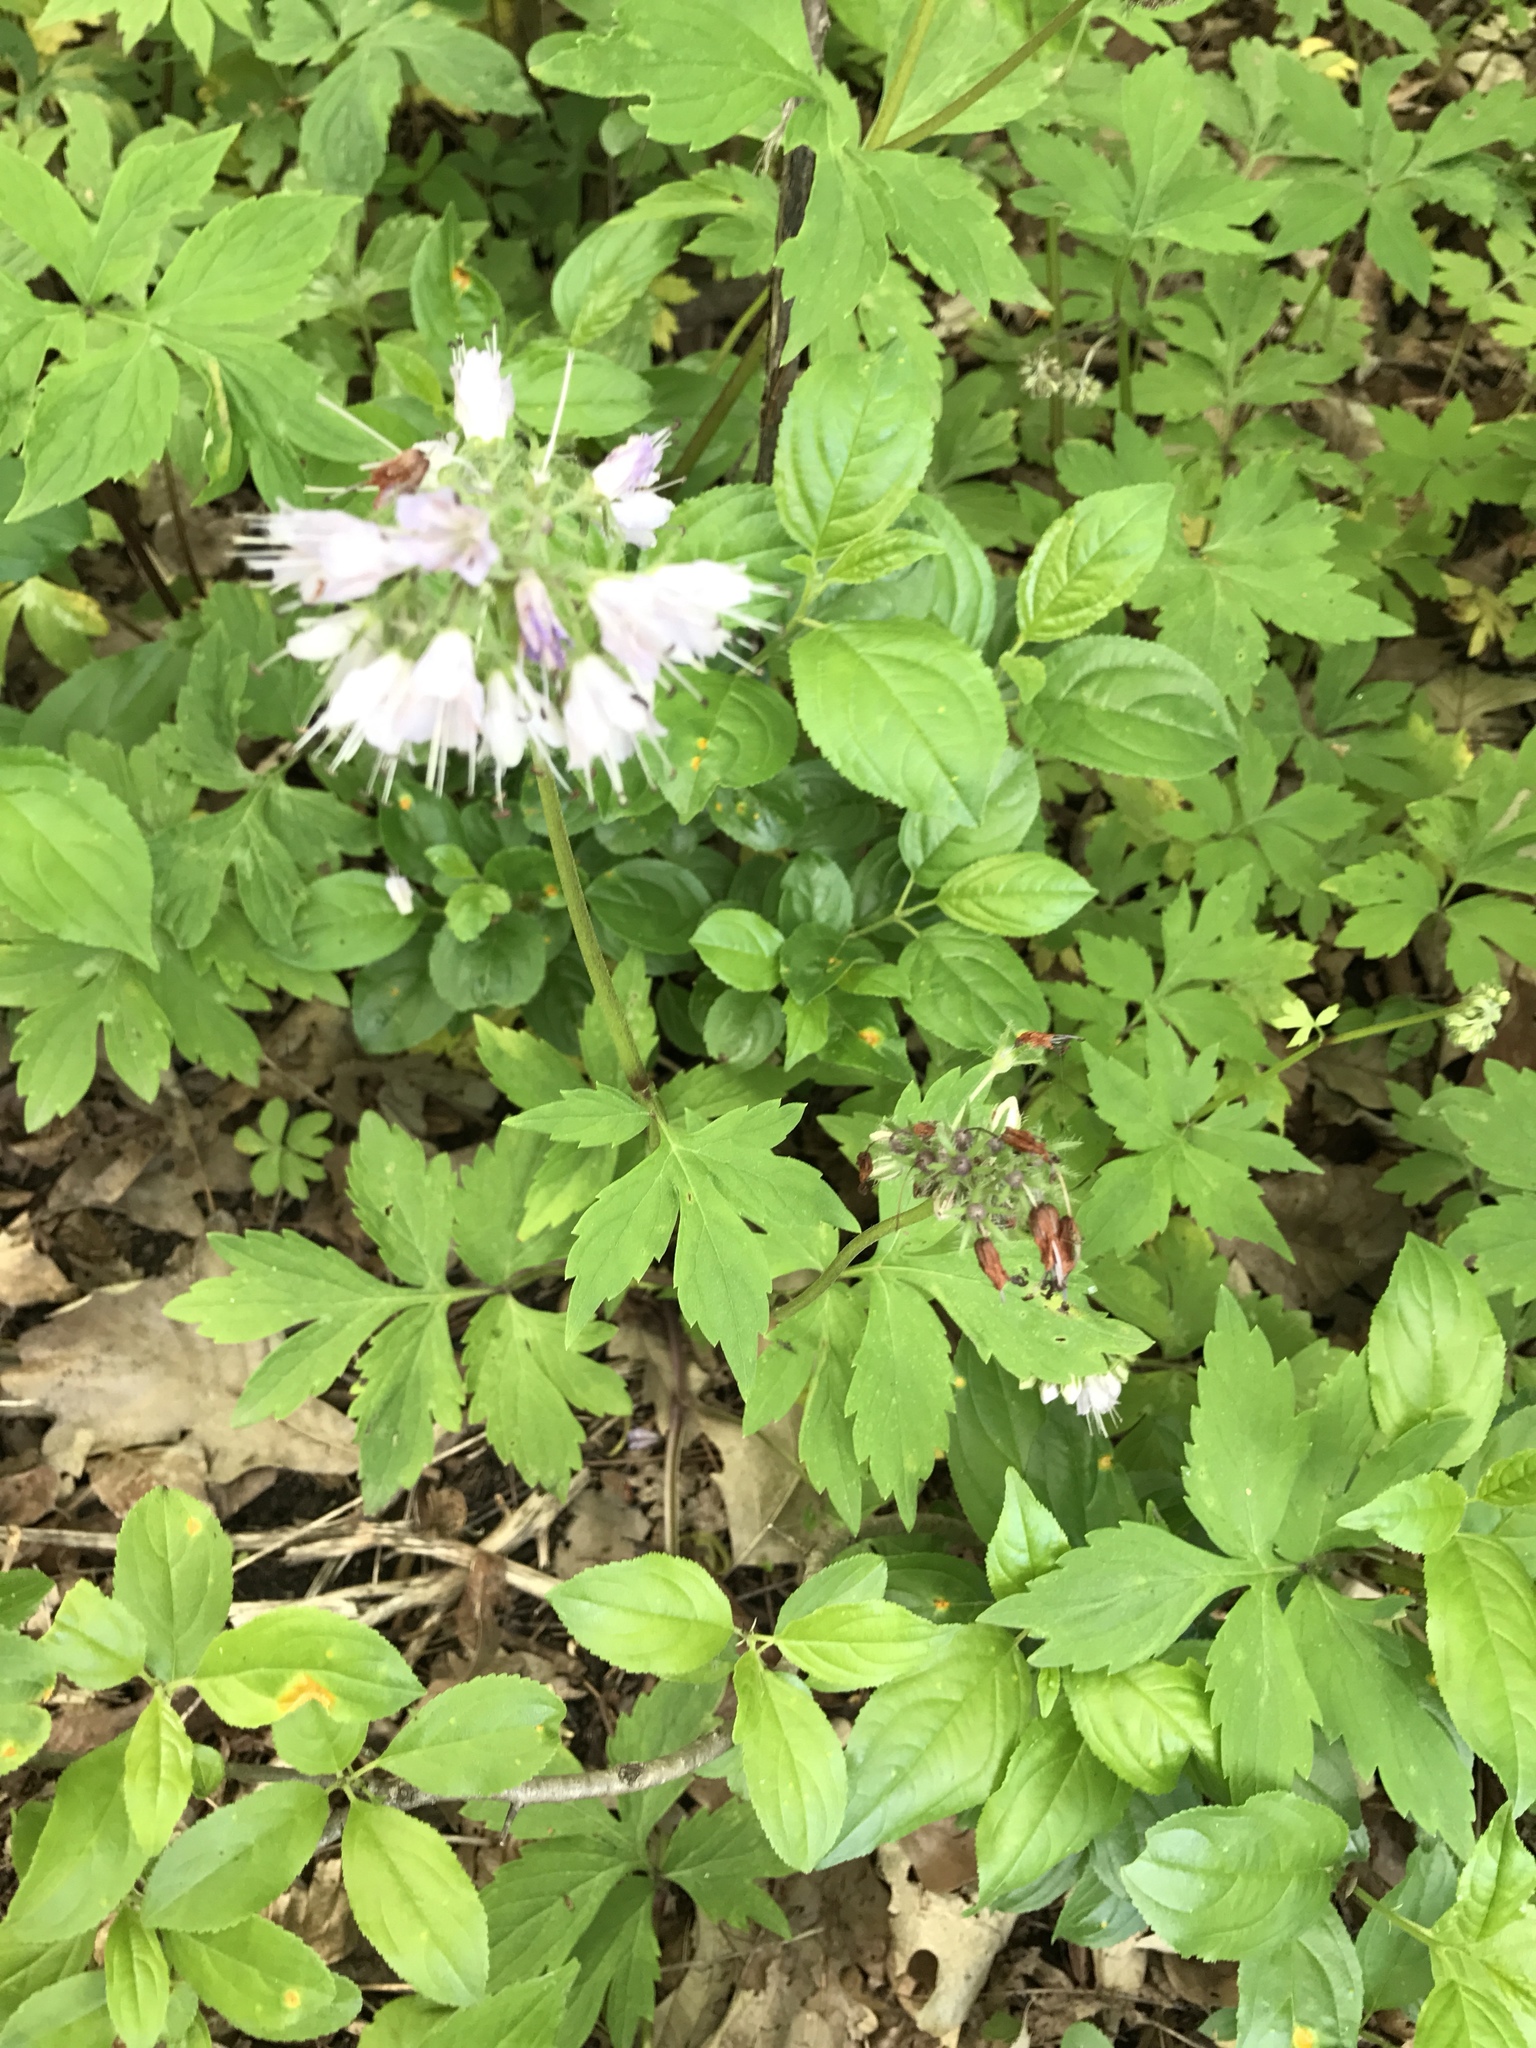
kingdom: Plantae
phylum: Tracheophyta
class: Magnoliopsida
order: Boraginales
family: Hydrophyllaceae
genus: Hydrophyllum
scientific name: Hydrophyllum virginianum
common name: Virginia waterleaf
